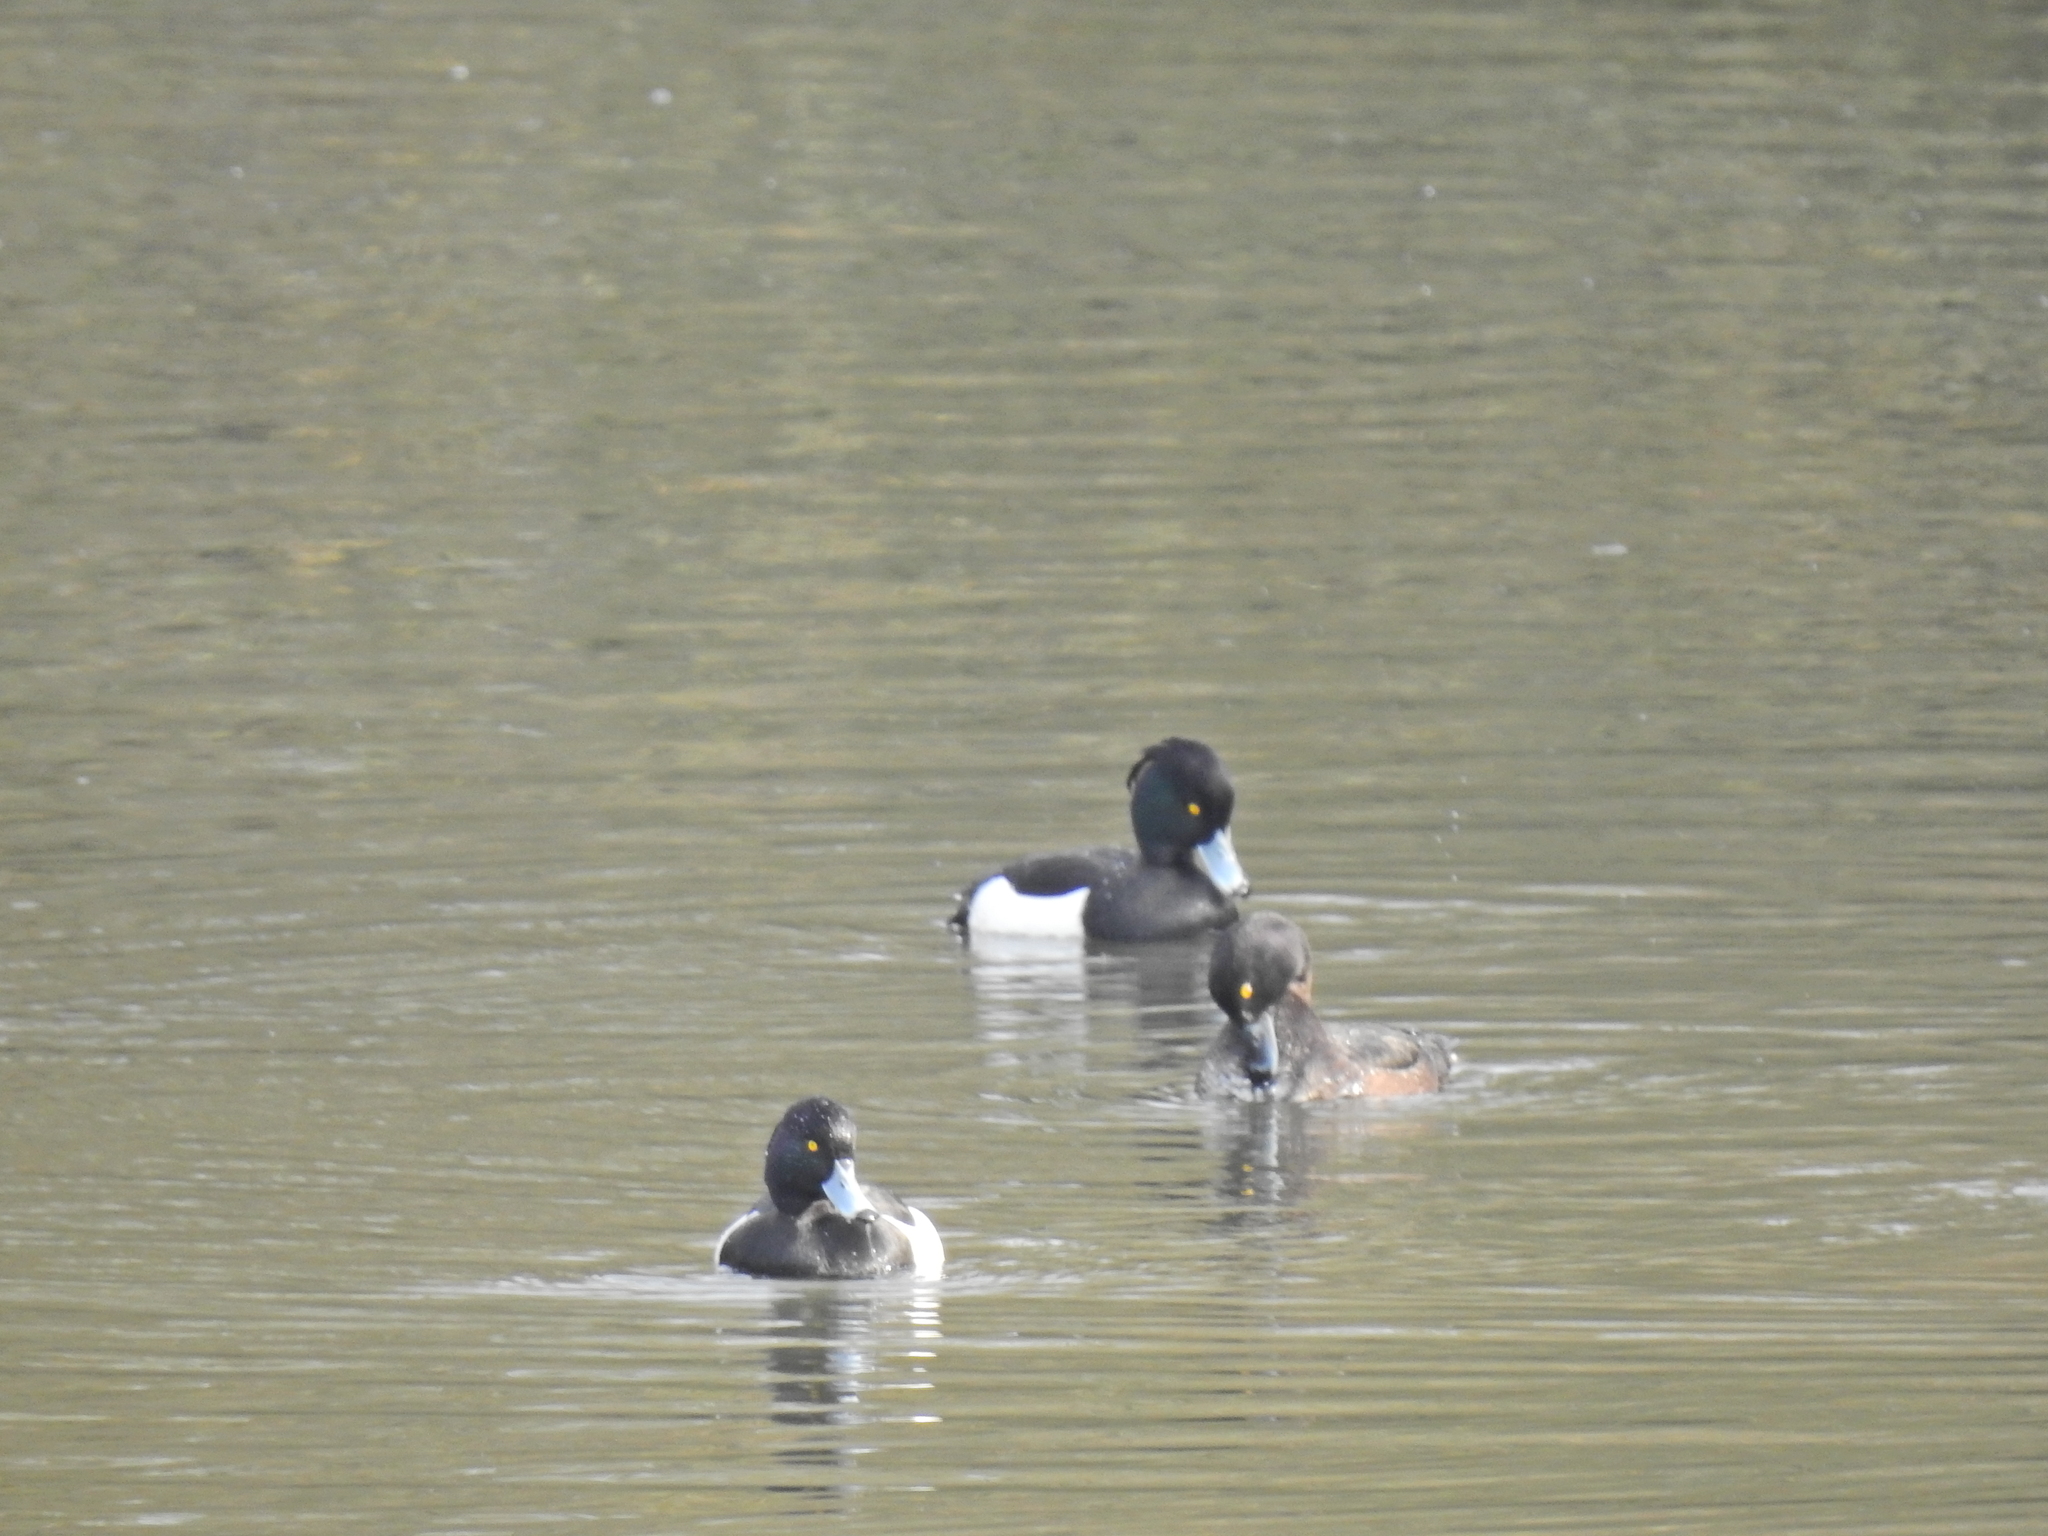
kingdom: Animalia
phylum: Chordata
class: Aves
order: Anseriformes
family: Anatidae
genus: Aythya
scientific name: Aythya fuligula
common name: Tufted duck
